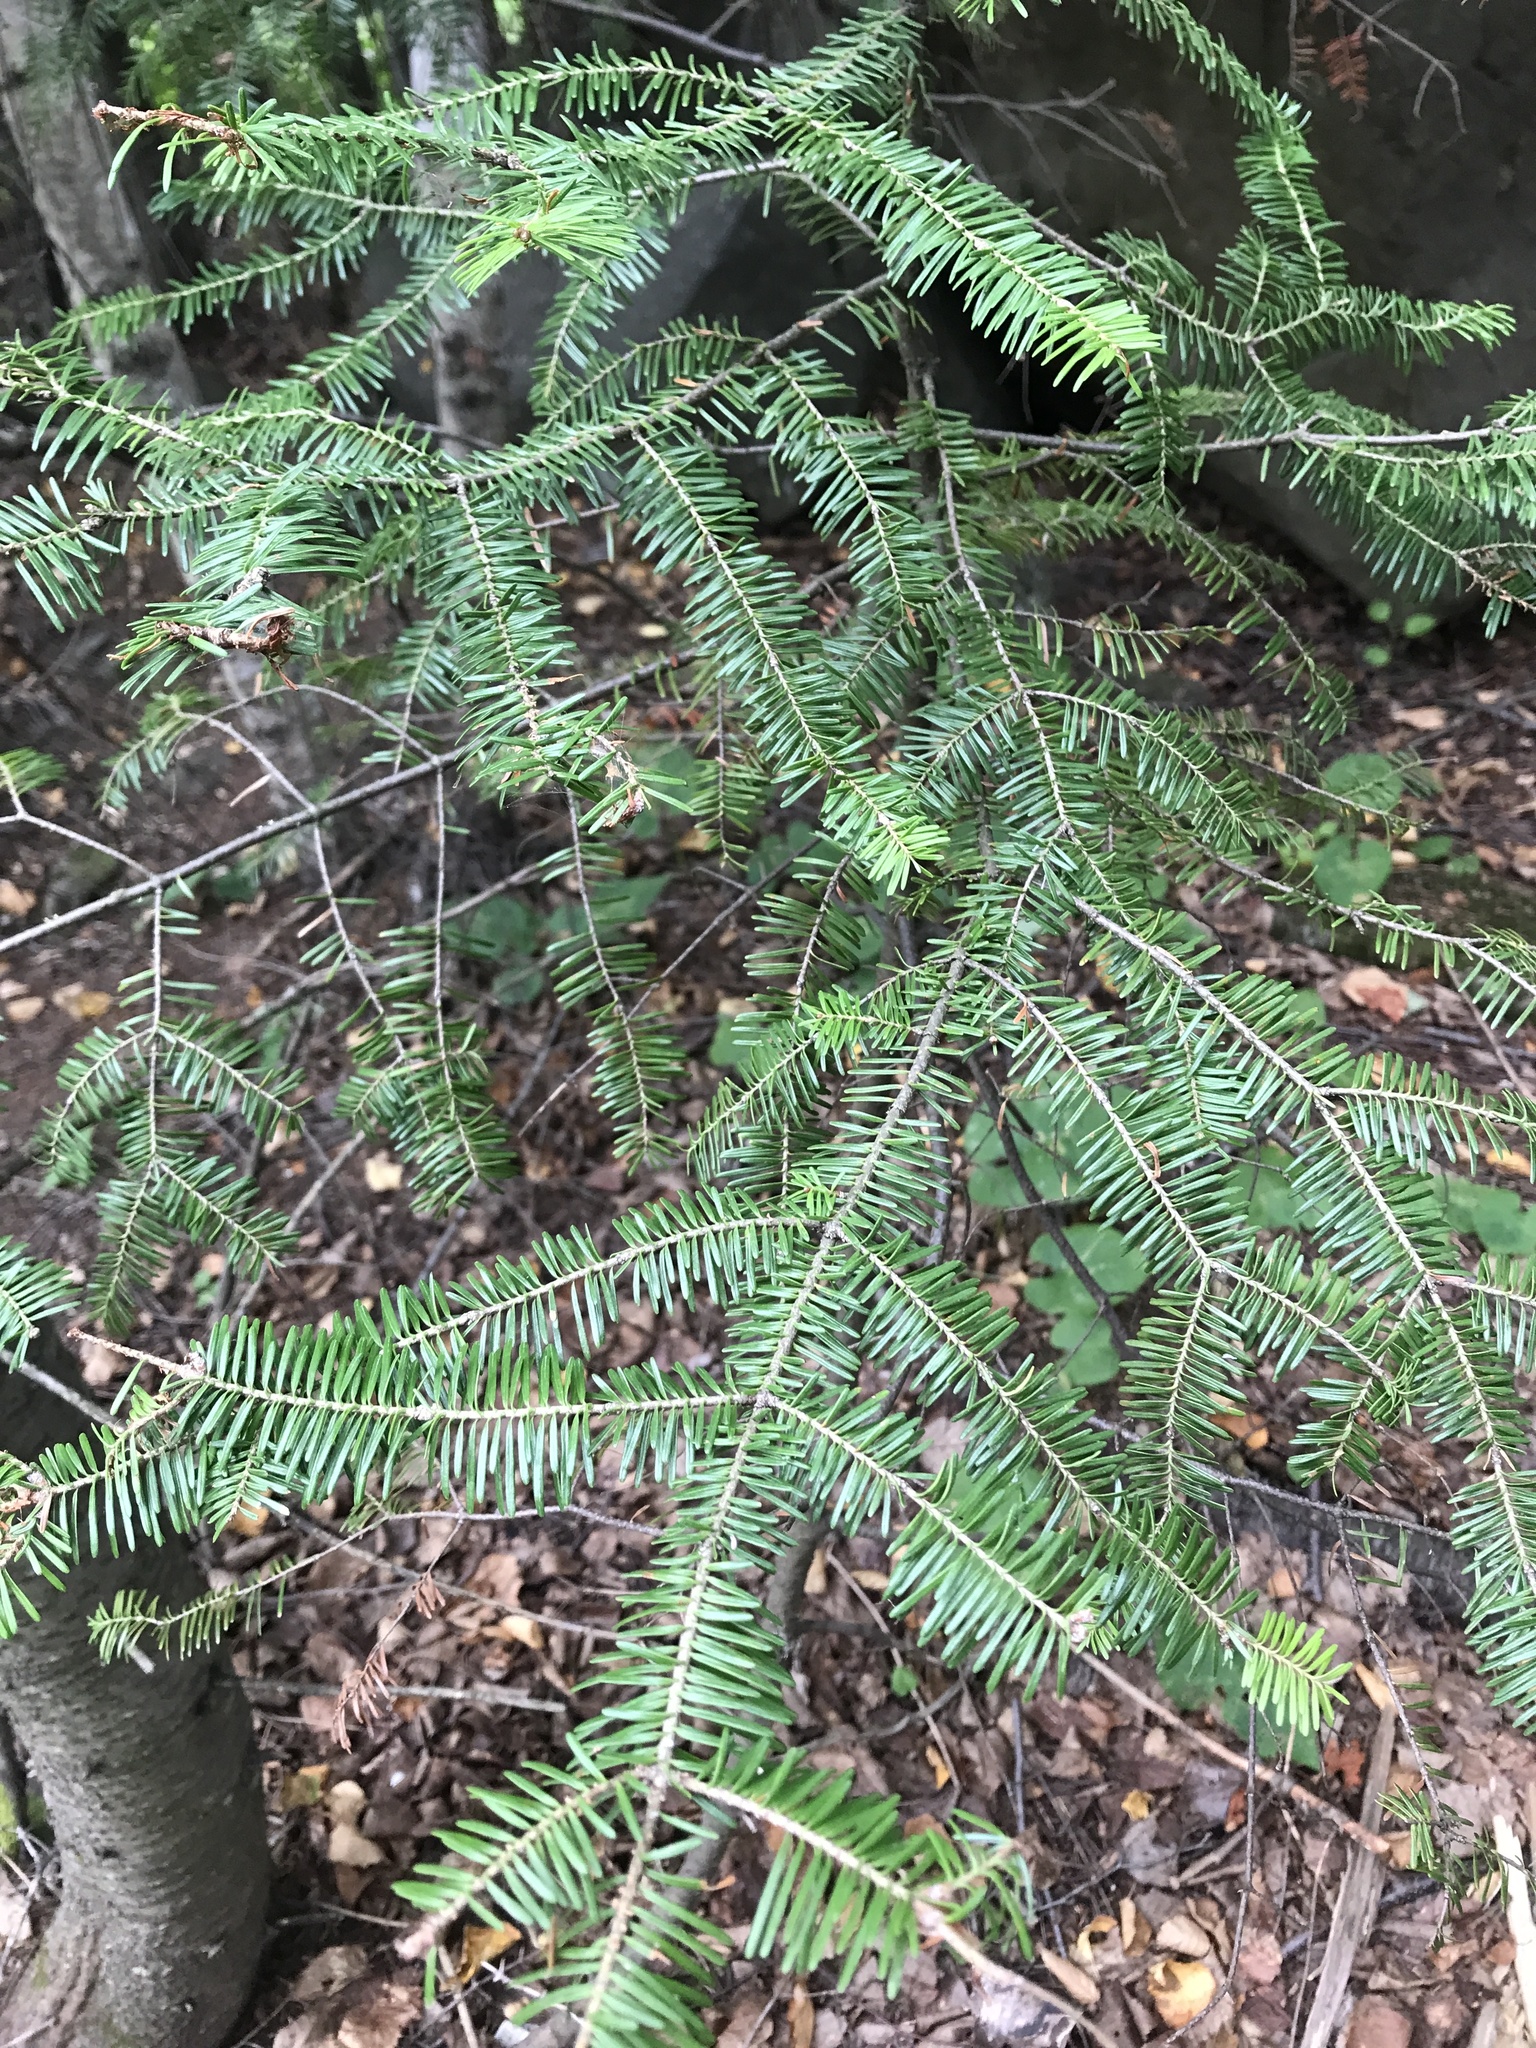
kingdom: Plantae
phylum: Tracheophyta
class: Pinopsida
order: Pinales
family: Pinaceae
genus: Abies
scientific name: Abies balsamea
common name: Balsam fir
